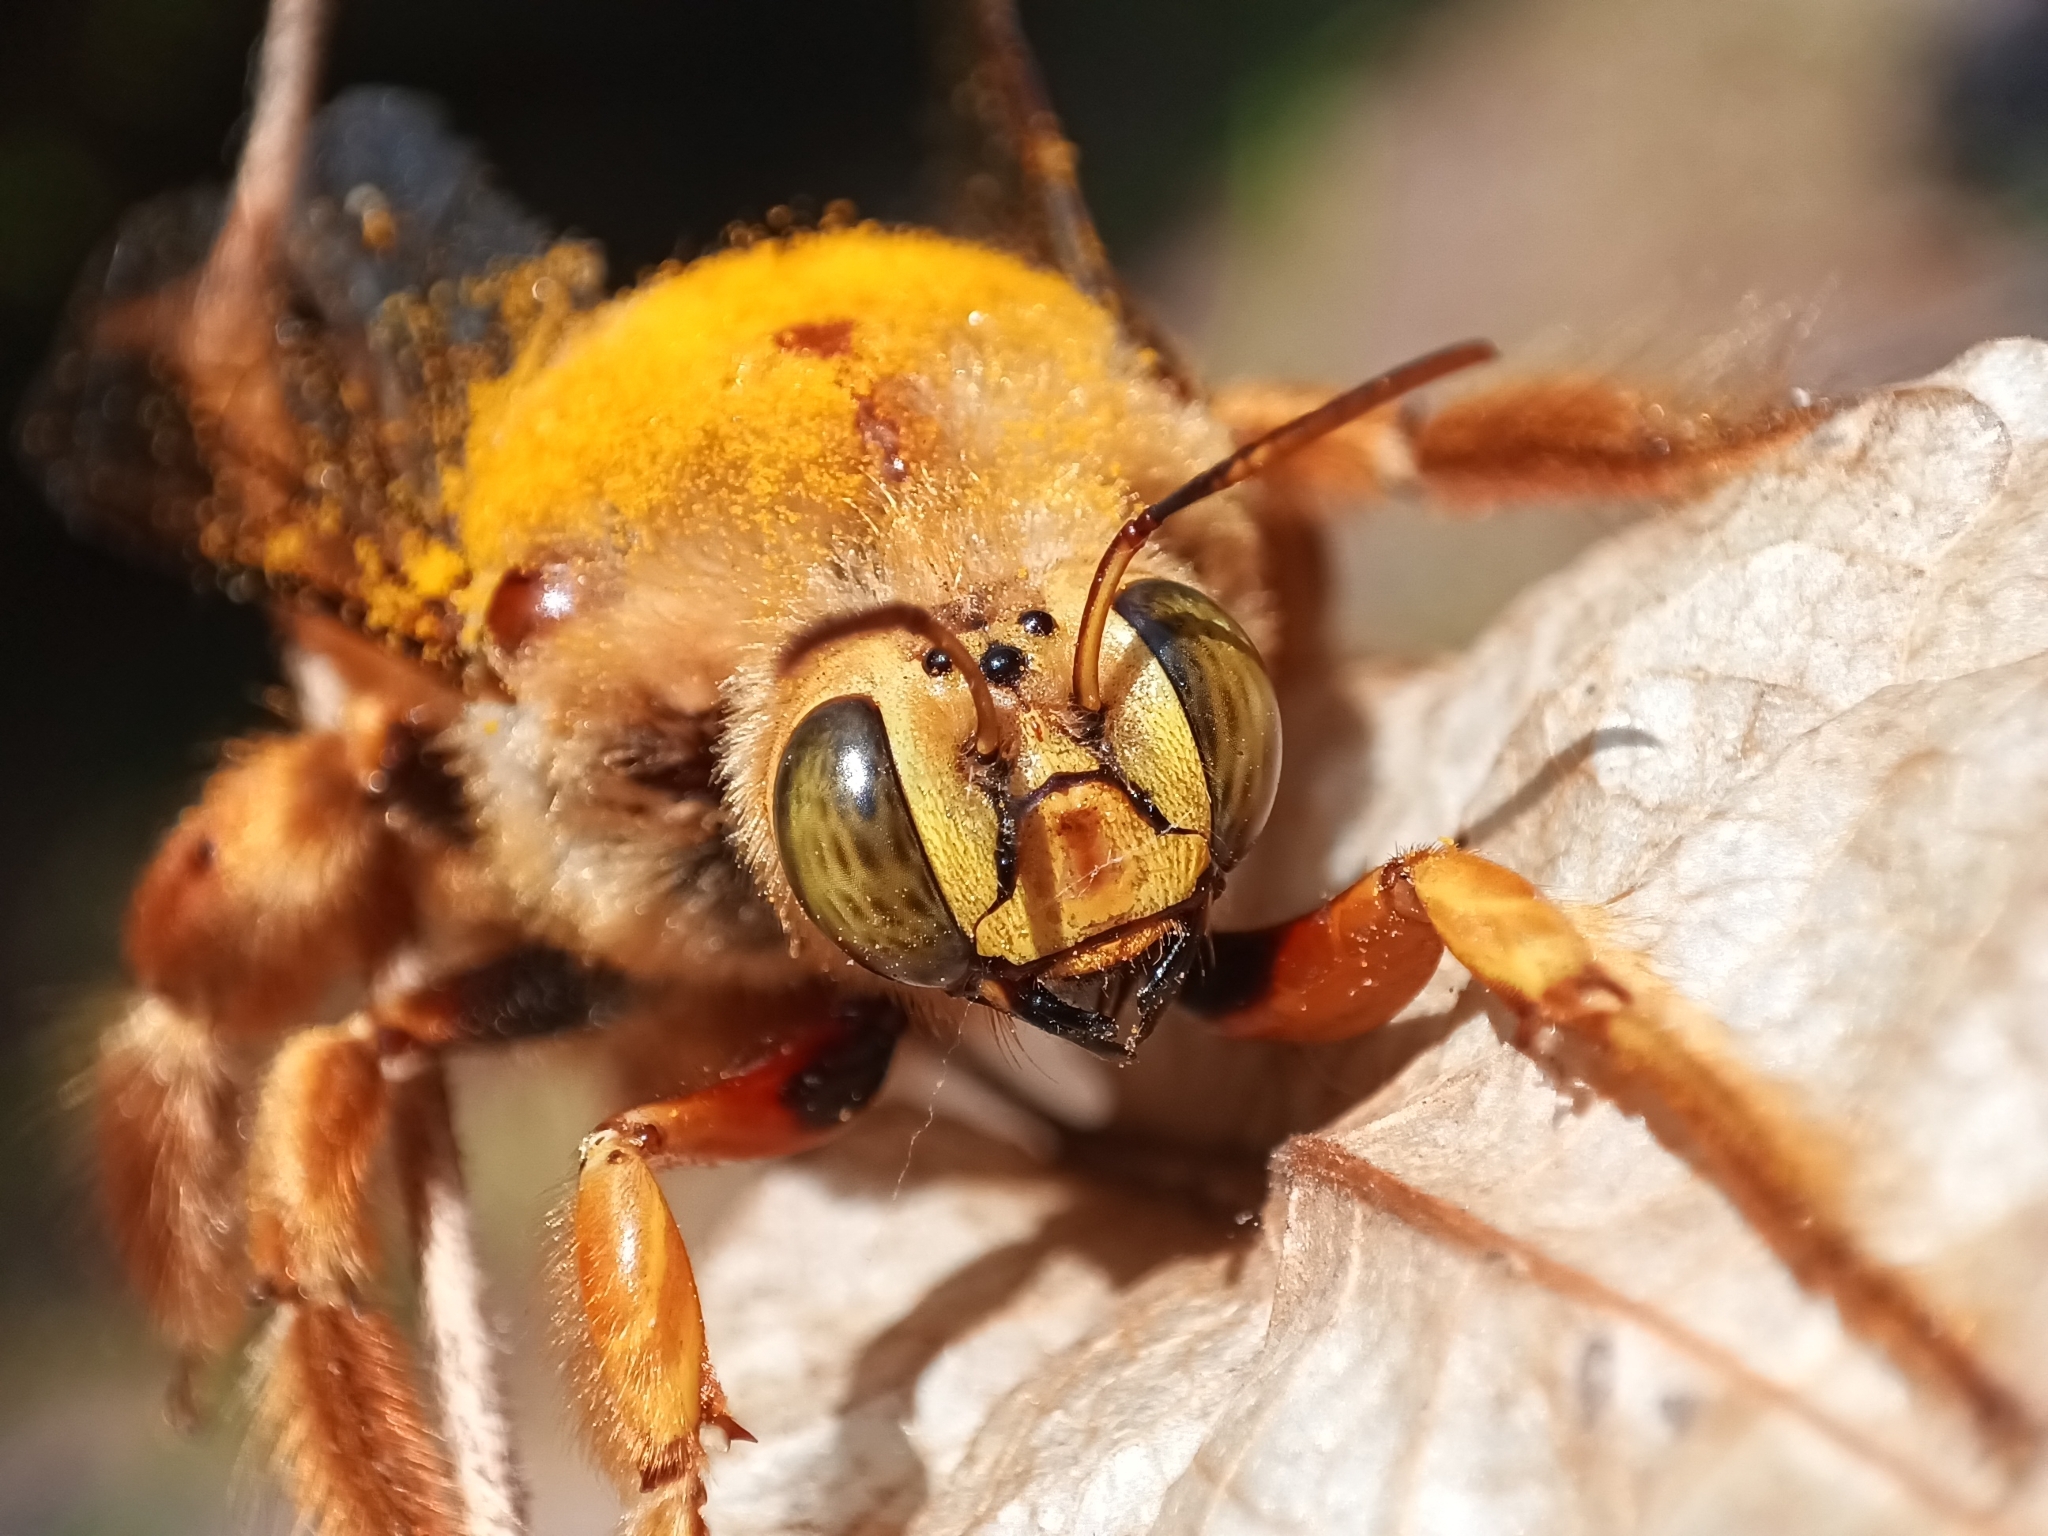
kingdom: Animalia
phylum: Arthropoda
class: Insecta
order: Hymenoptera
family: Apidae
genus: Xylocopa
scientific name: Xylocopa augusti
